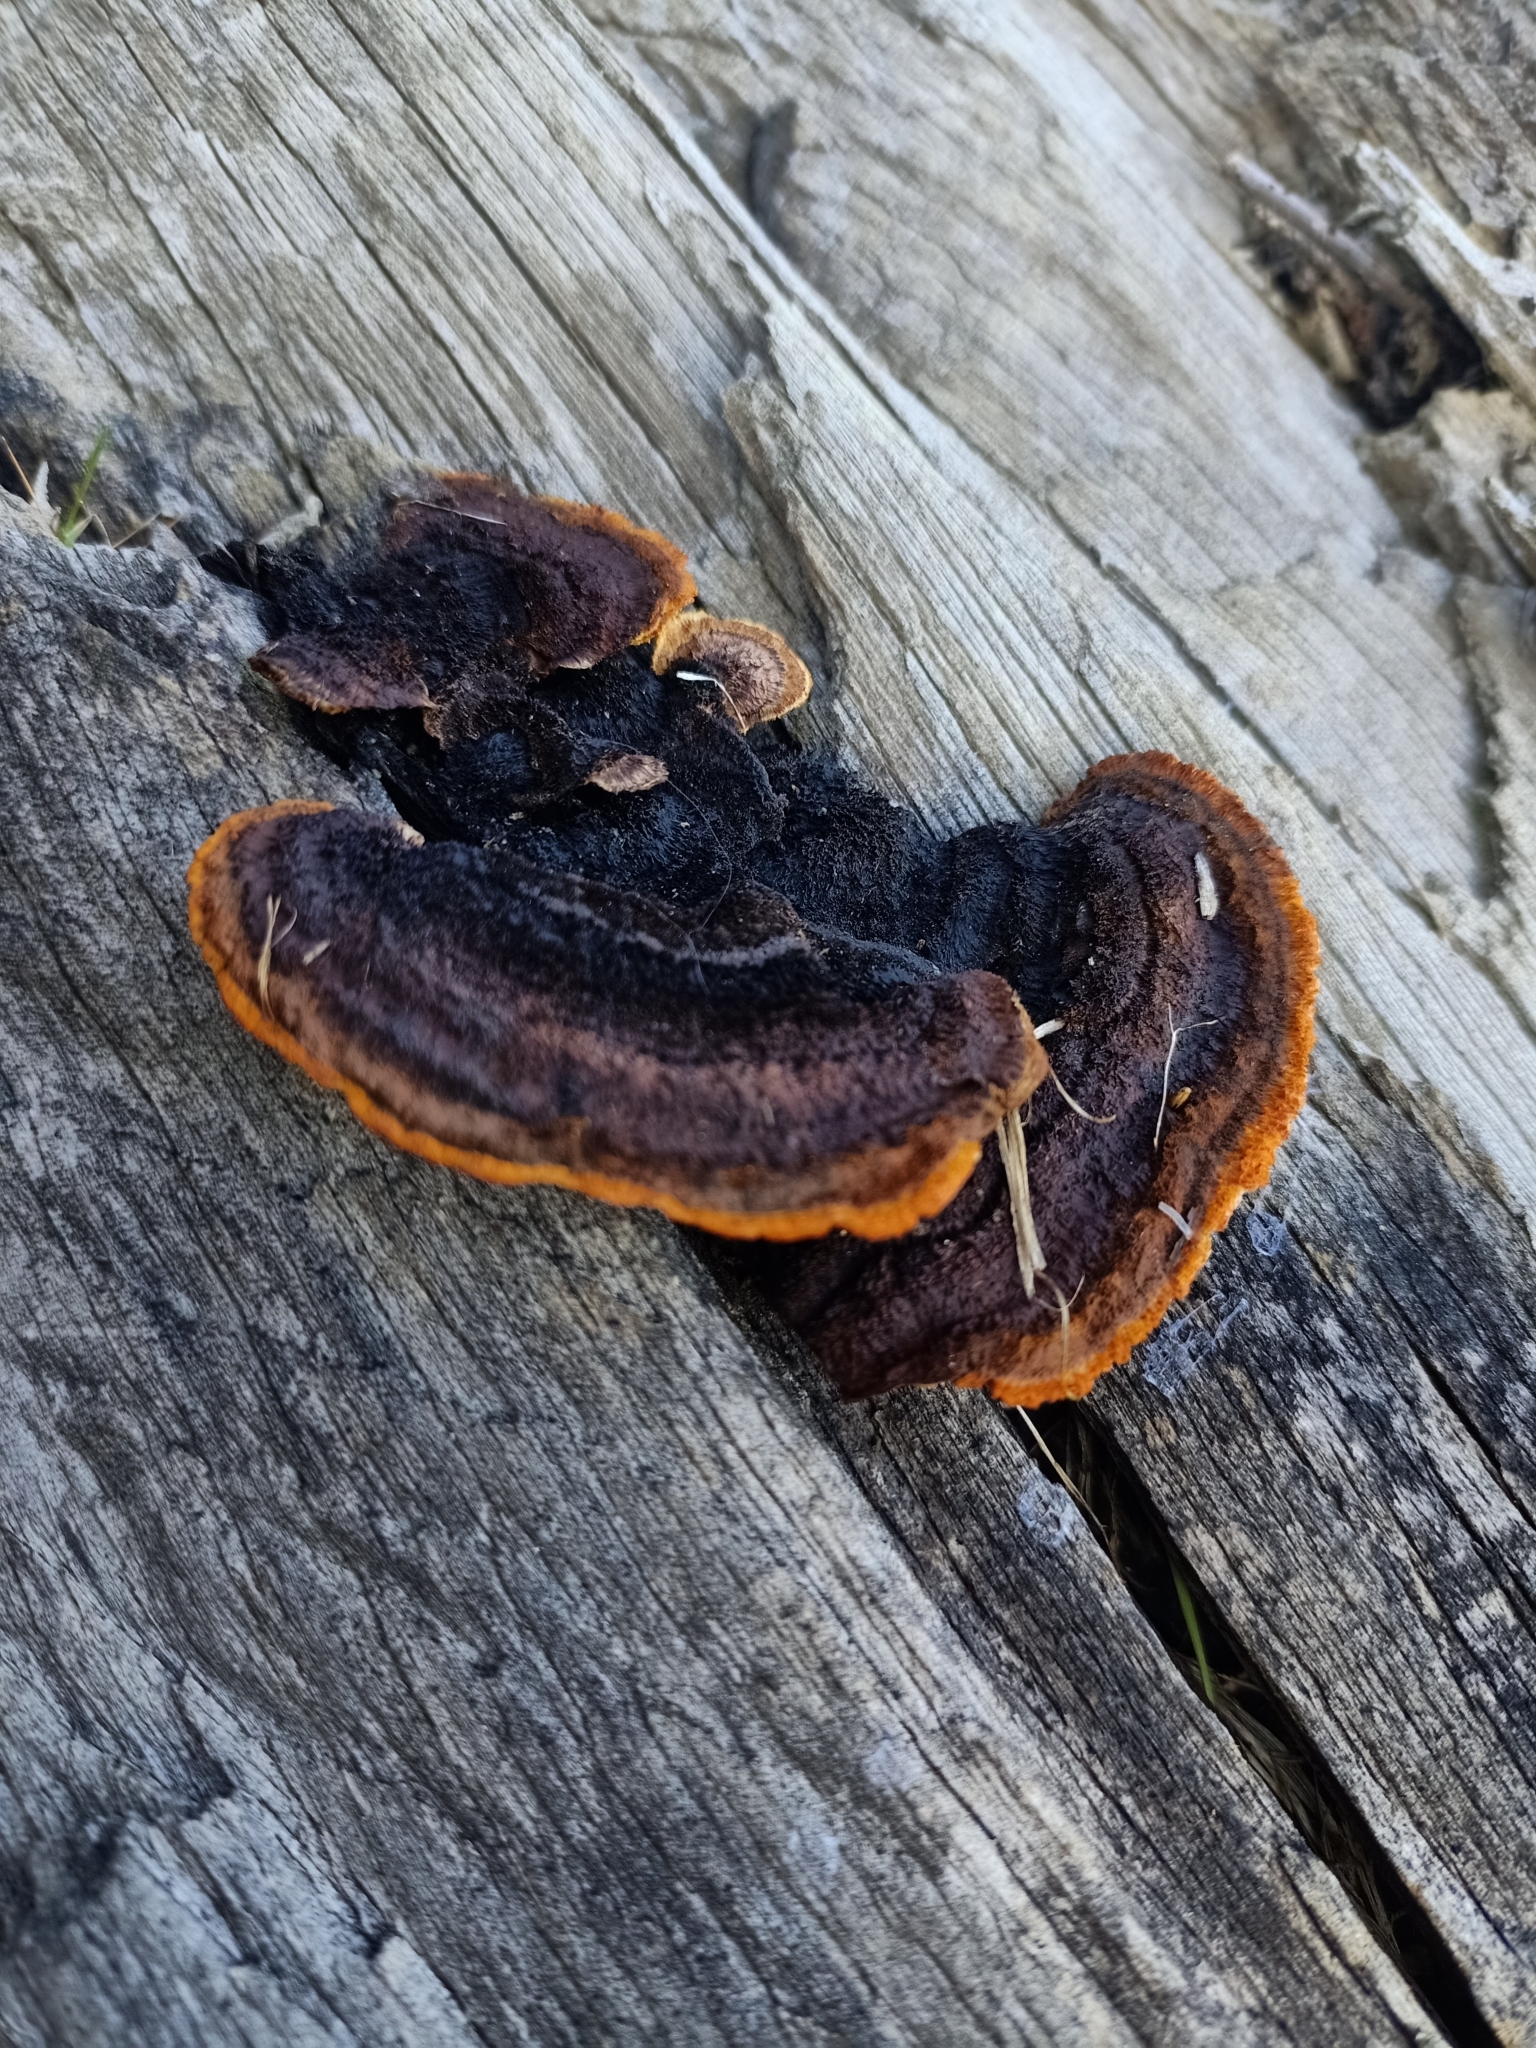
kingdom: Fungi
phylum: Basidiomycota
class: Agaricomycetes
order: Gloeophyllales
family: Gloeophyllaceae
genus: Gloeophyllum
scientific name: Gloeophyllum sepiarium
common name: Conifer mazegill
